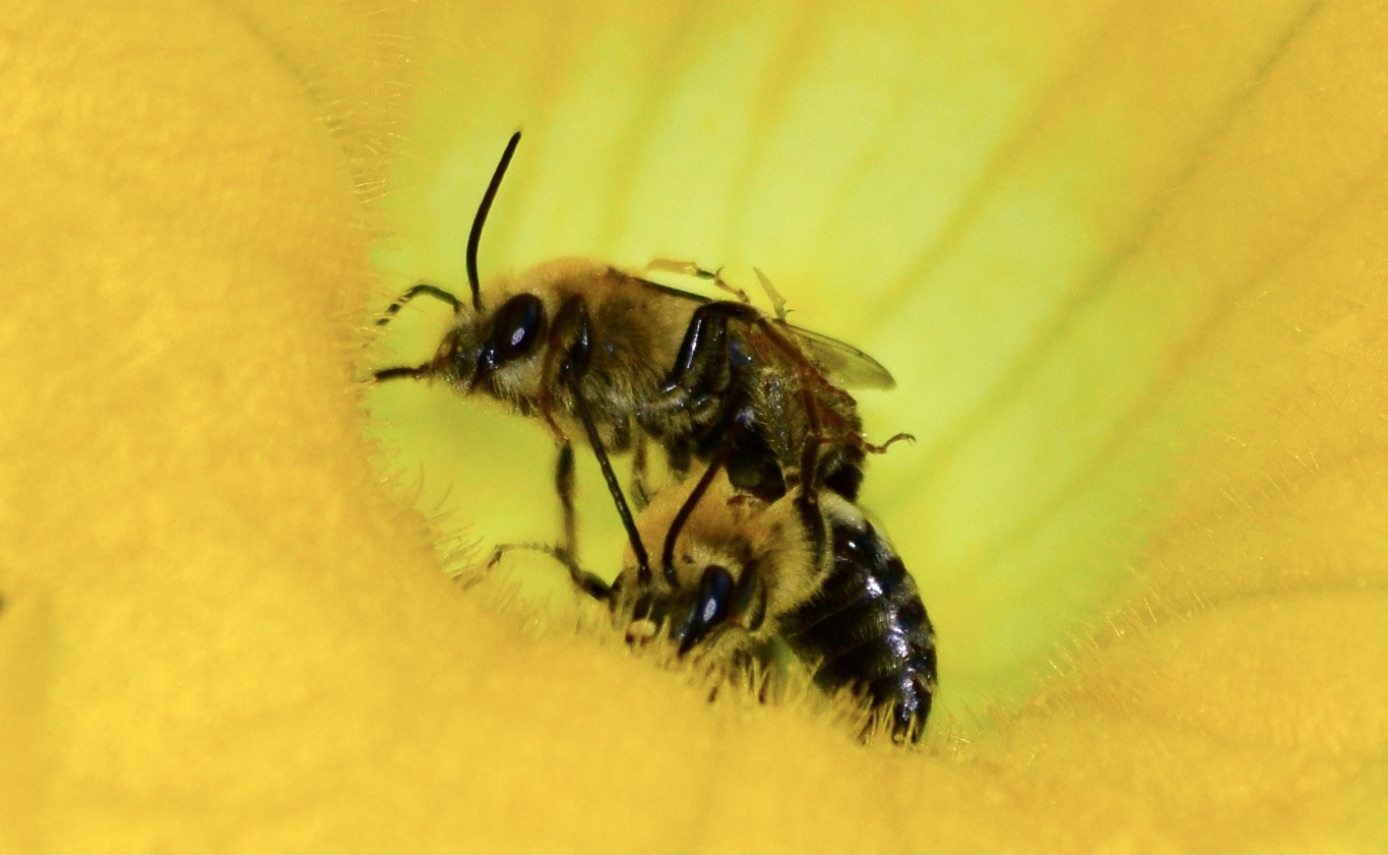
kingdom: Animalia
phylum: Arthropoda
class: Insecta
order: Hymenoptera
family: Apidae
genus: Peponapis
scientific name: Peponapis pruinosa
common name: Pruinose squash bee
